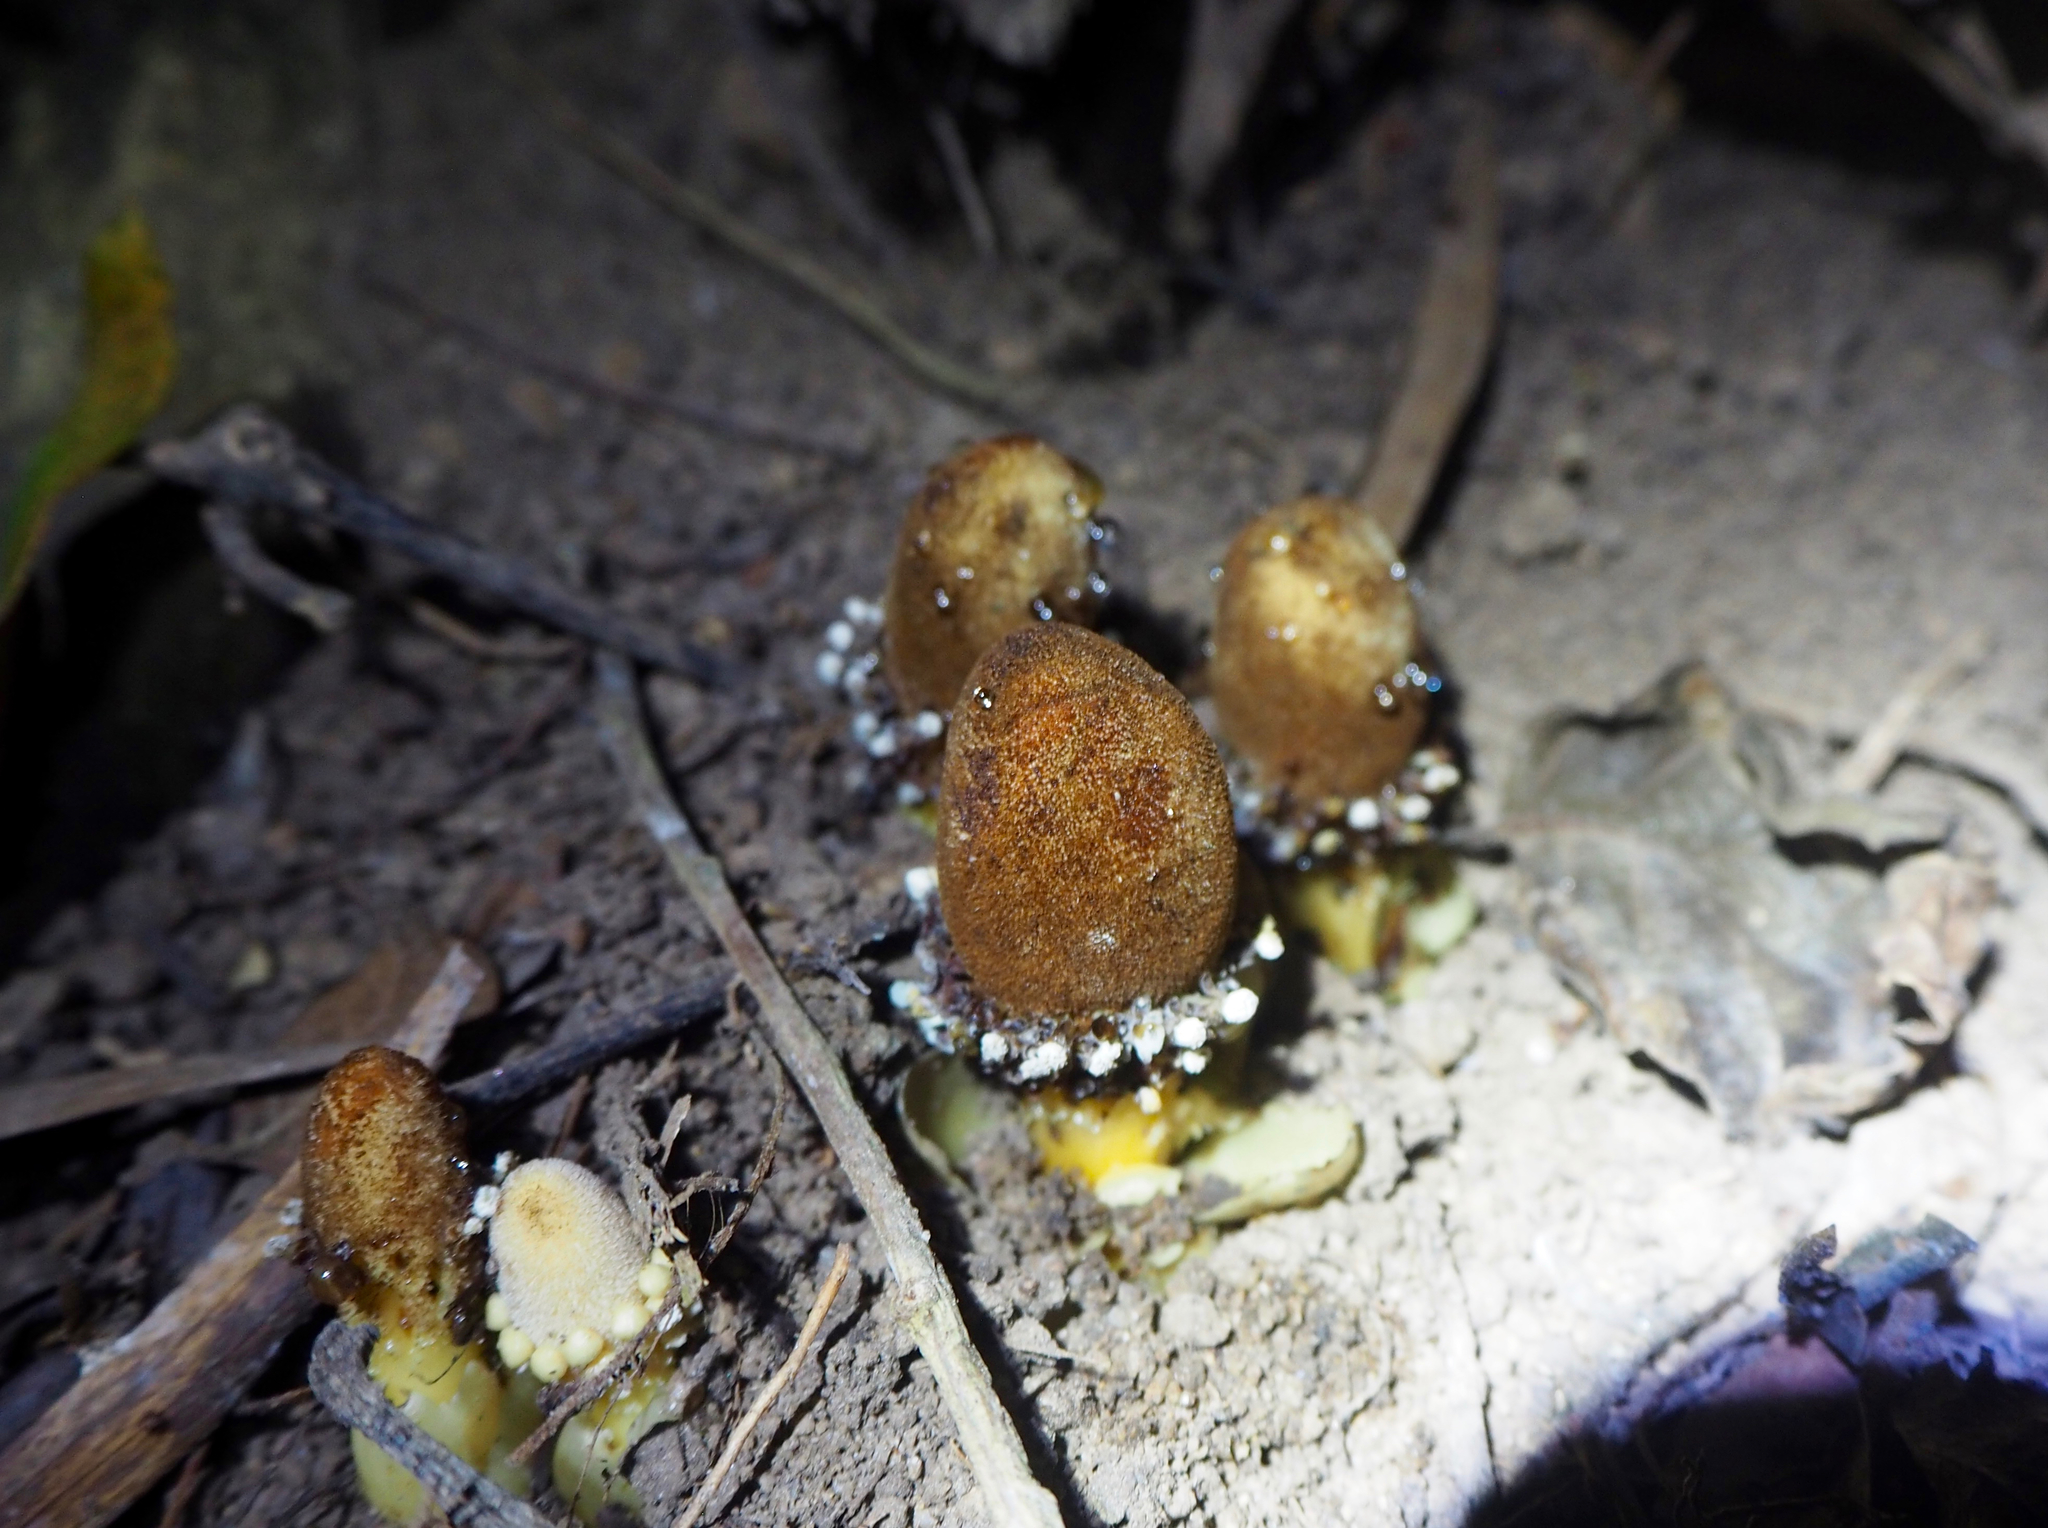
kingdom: Plantae
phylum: Tracheophyta
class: Magnoliopsida
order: Santalales
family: Balanophoraceae
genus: Balanophora
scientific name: Balanophora fungosa
